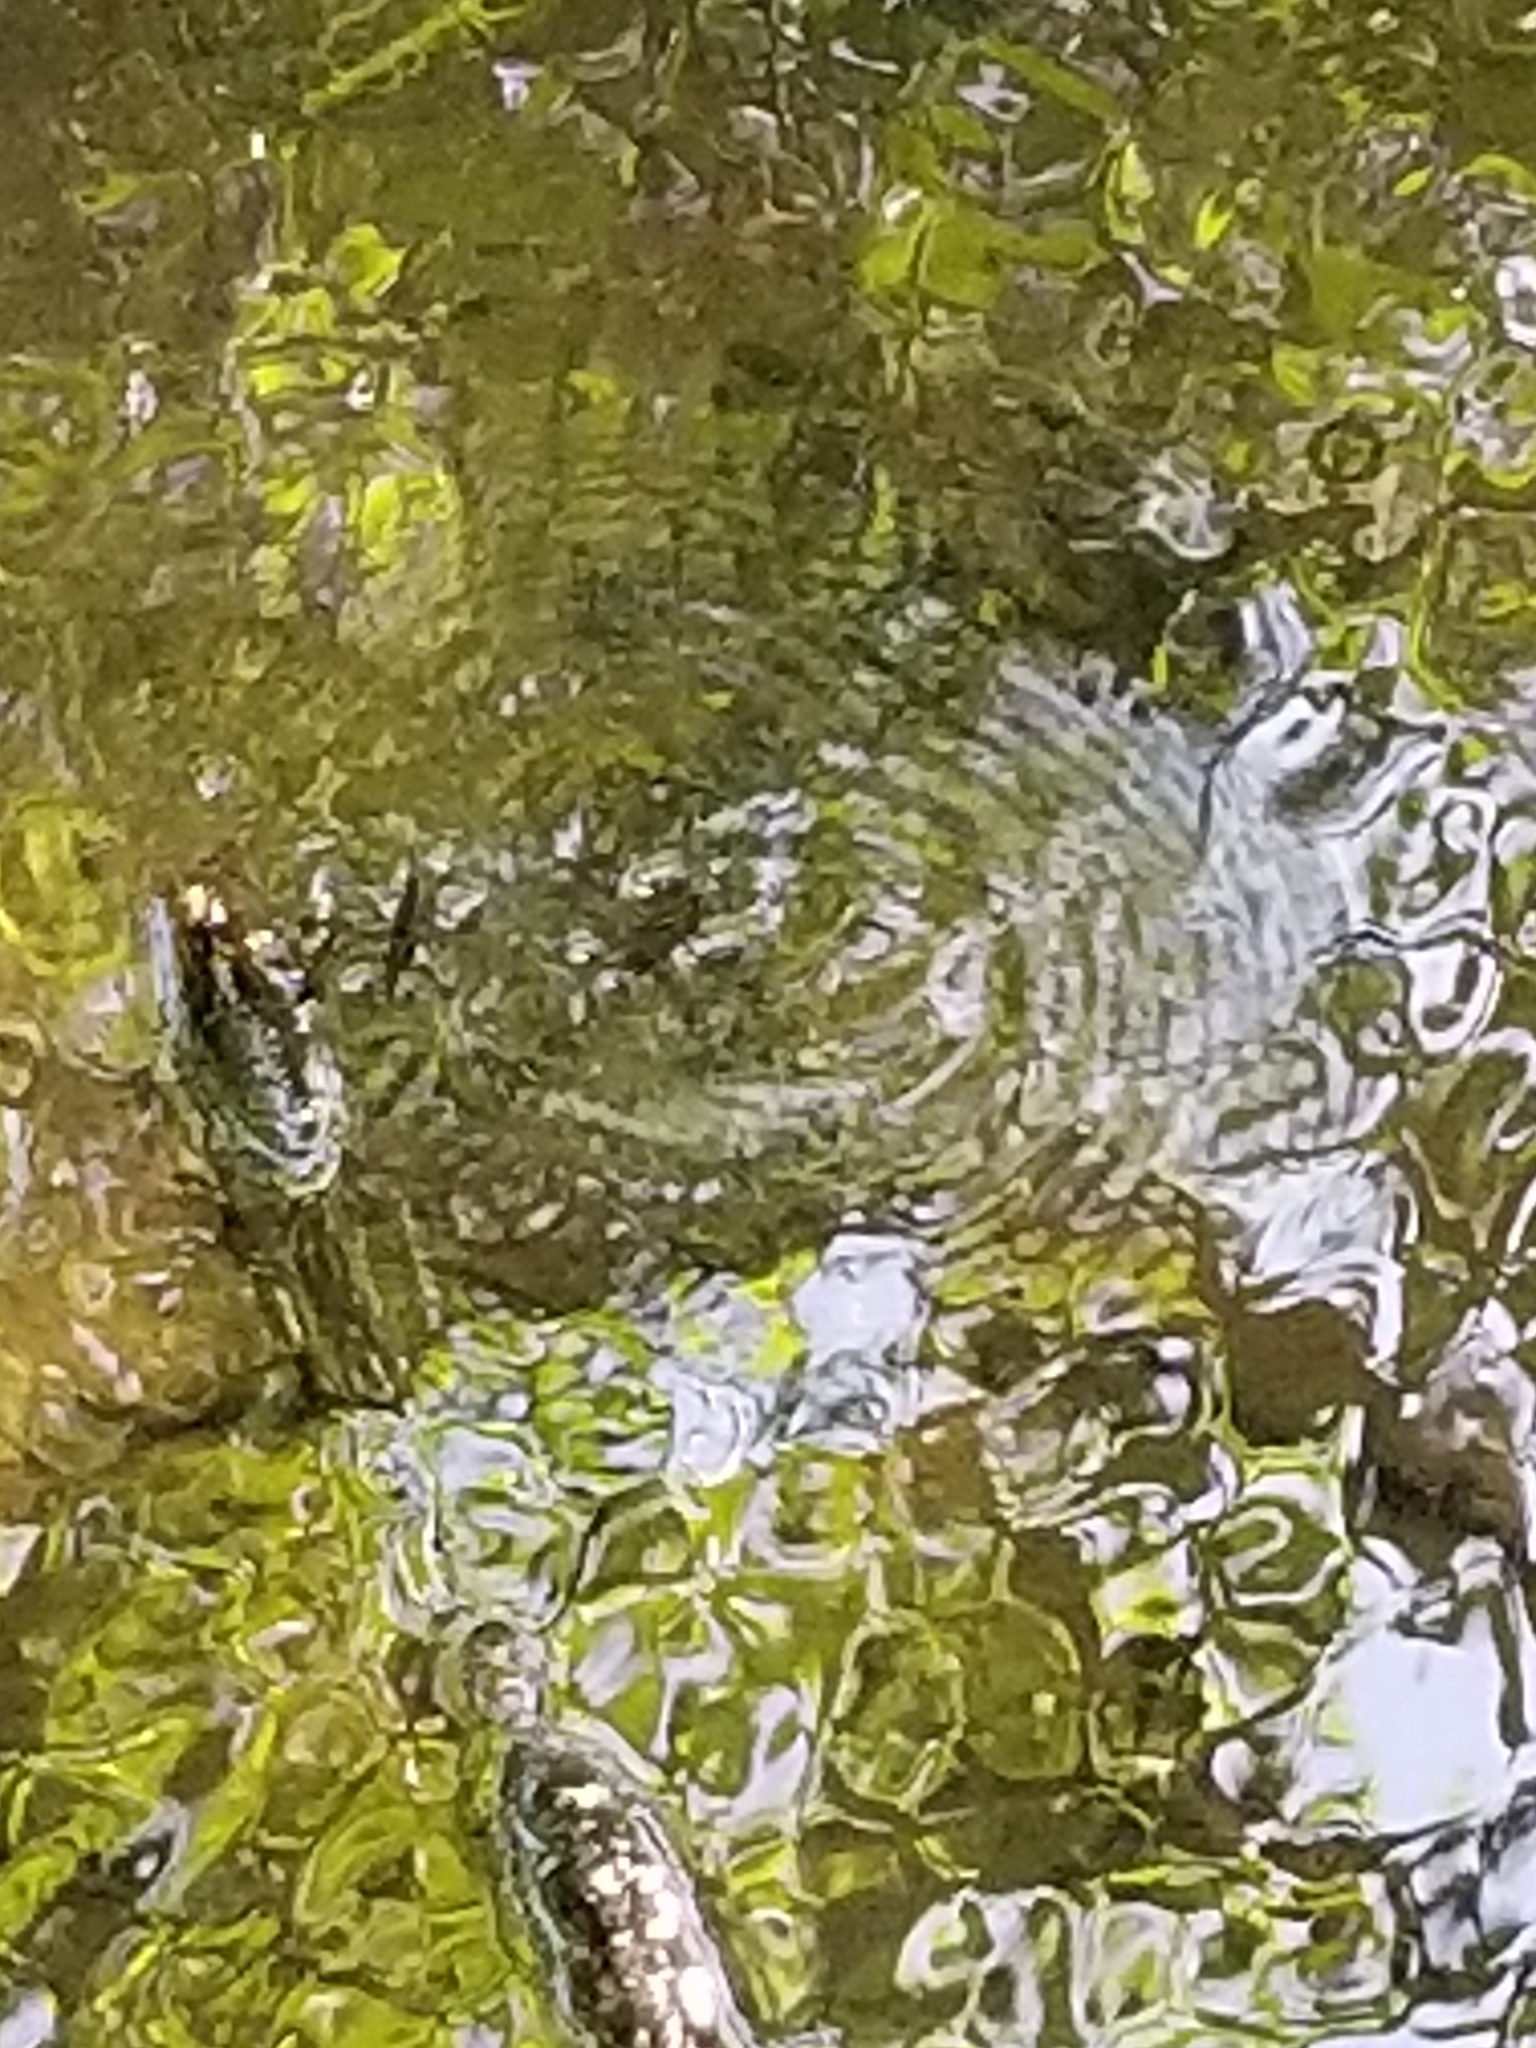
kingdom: Animalia
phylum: Arthropoda
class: Insecta
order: Hemiptera
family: Gerridae
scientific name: Gerridae
